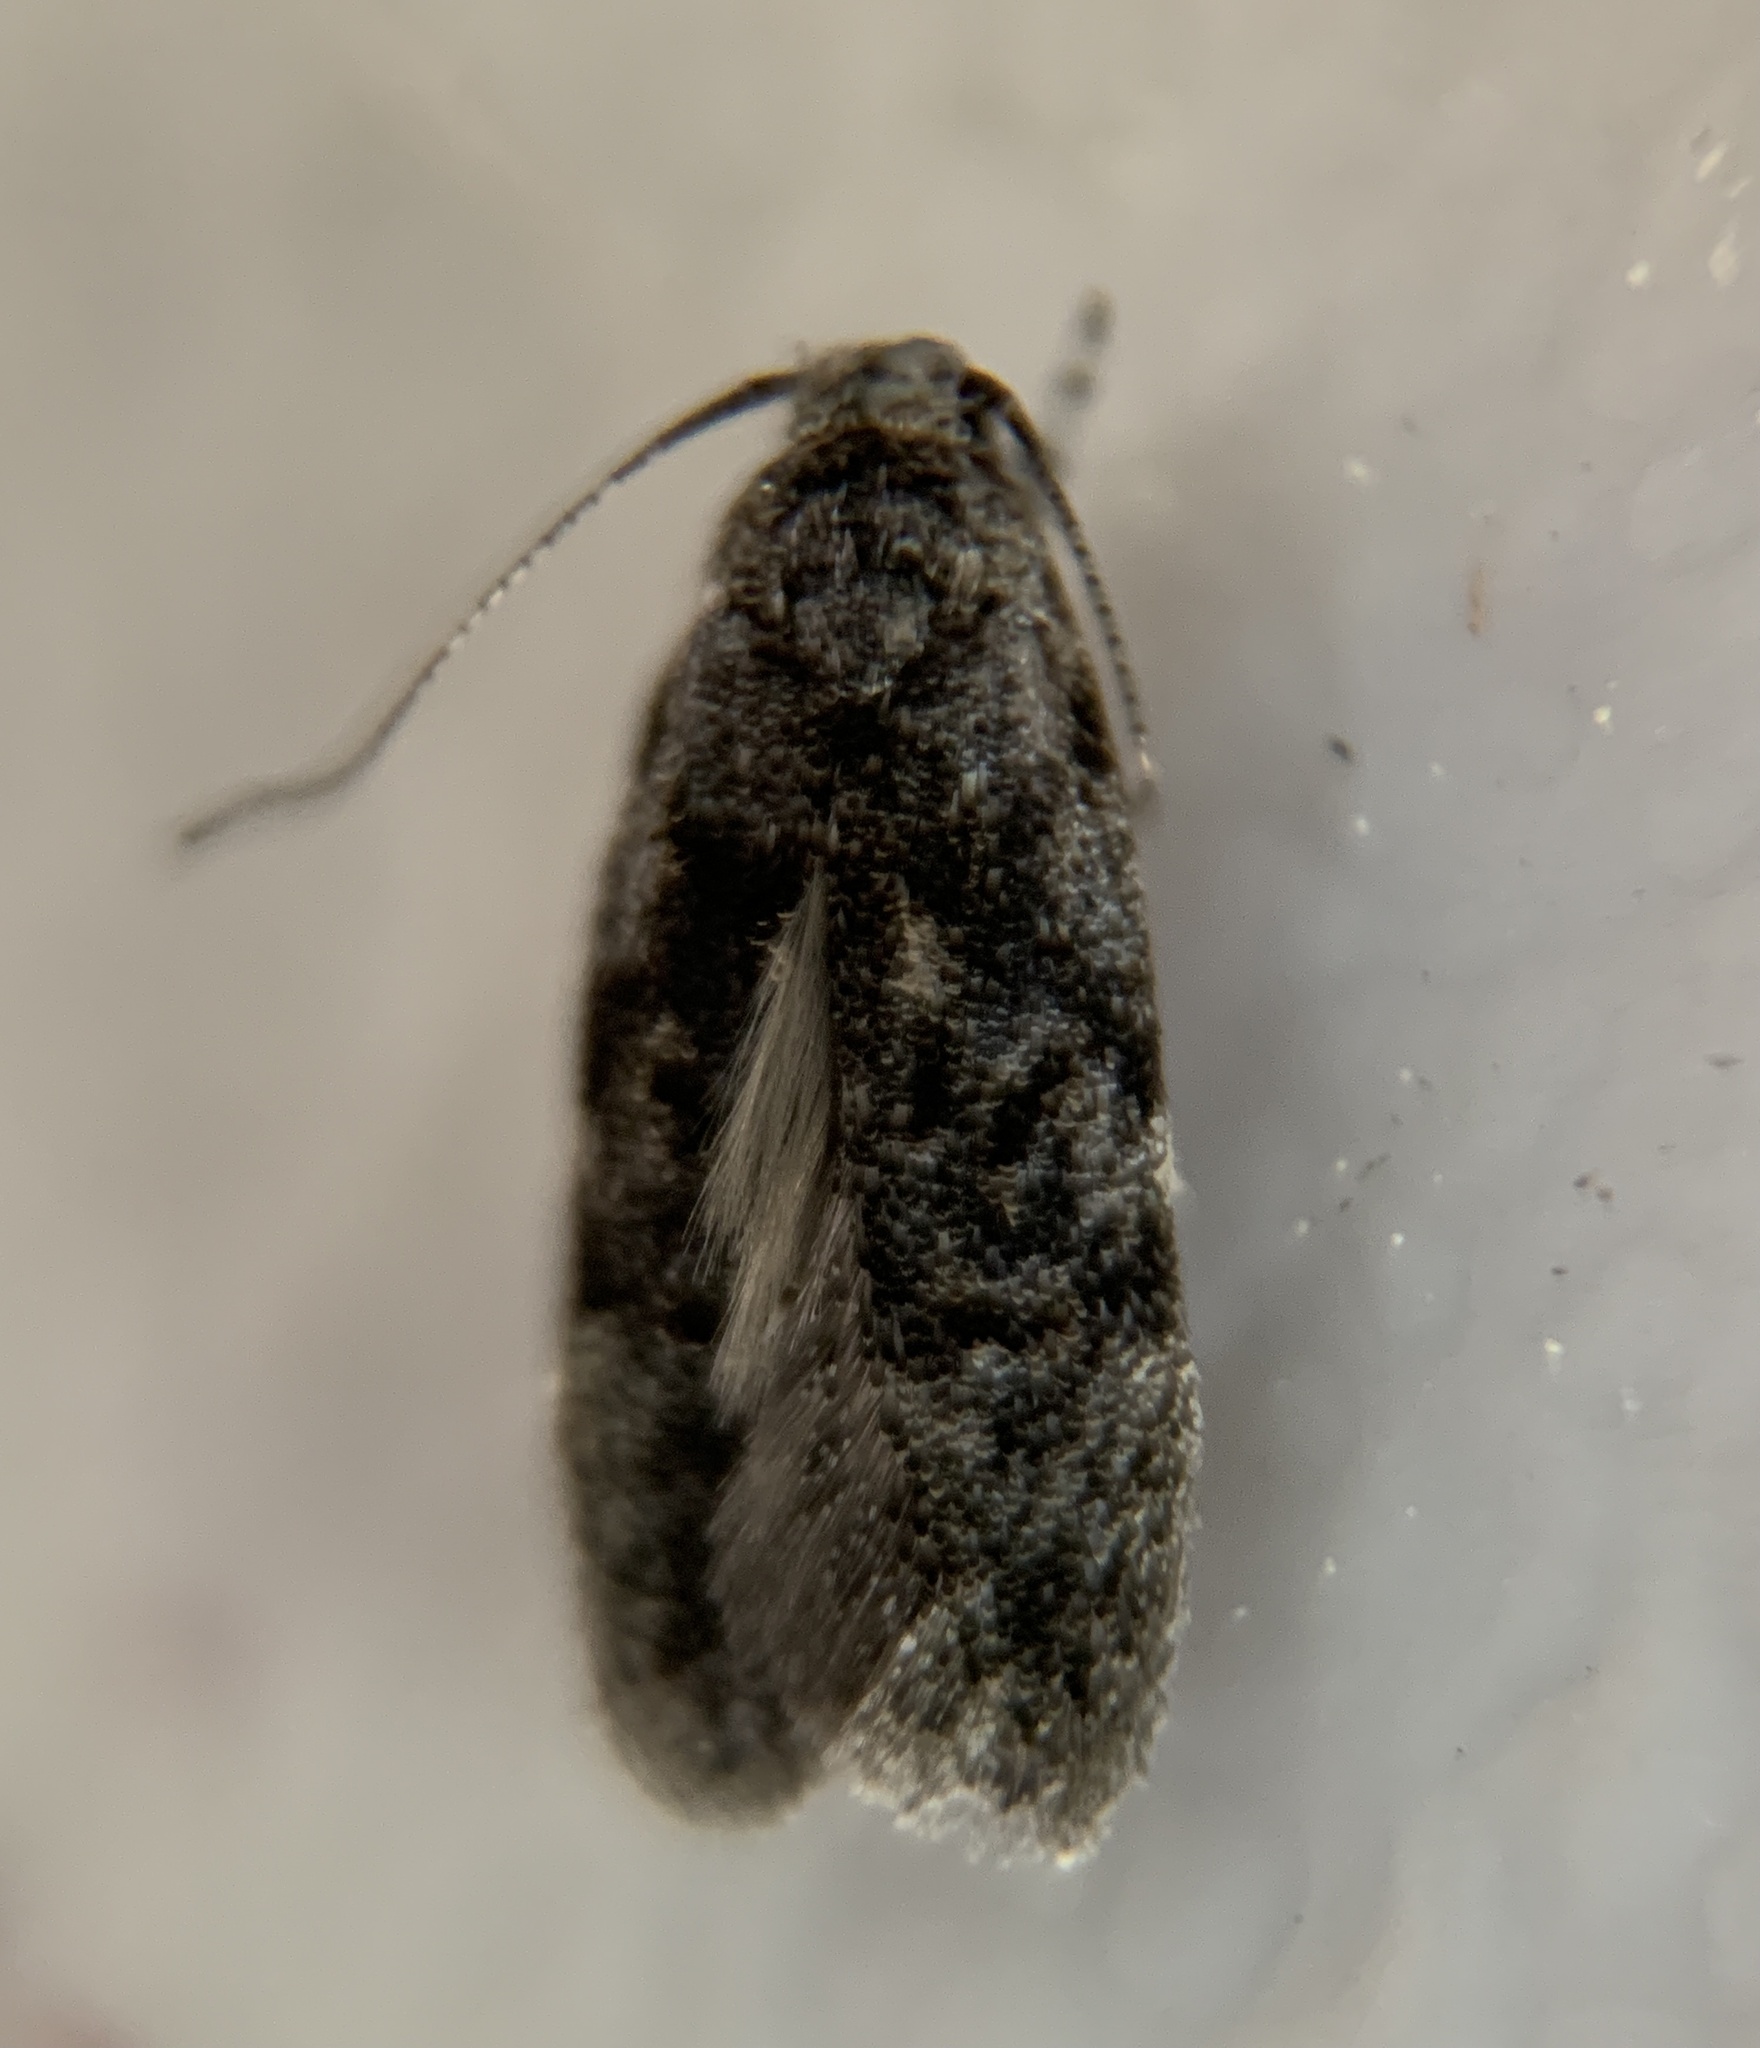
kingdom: Animalia
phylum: Arthropoda
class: Insecta
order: Lepidoptera
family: Gelechiidae
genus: Xenolechia
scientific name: Xenolechia ontariensis
